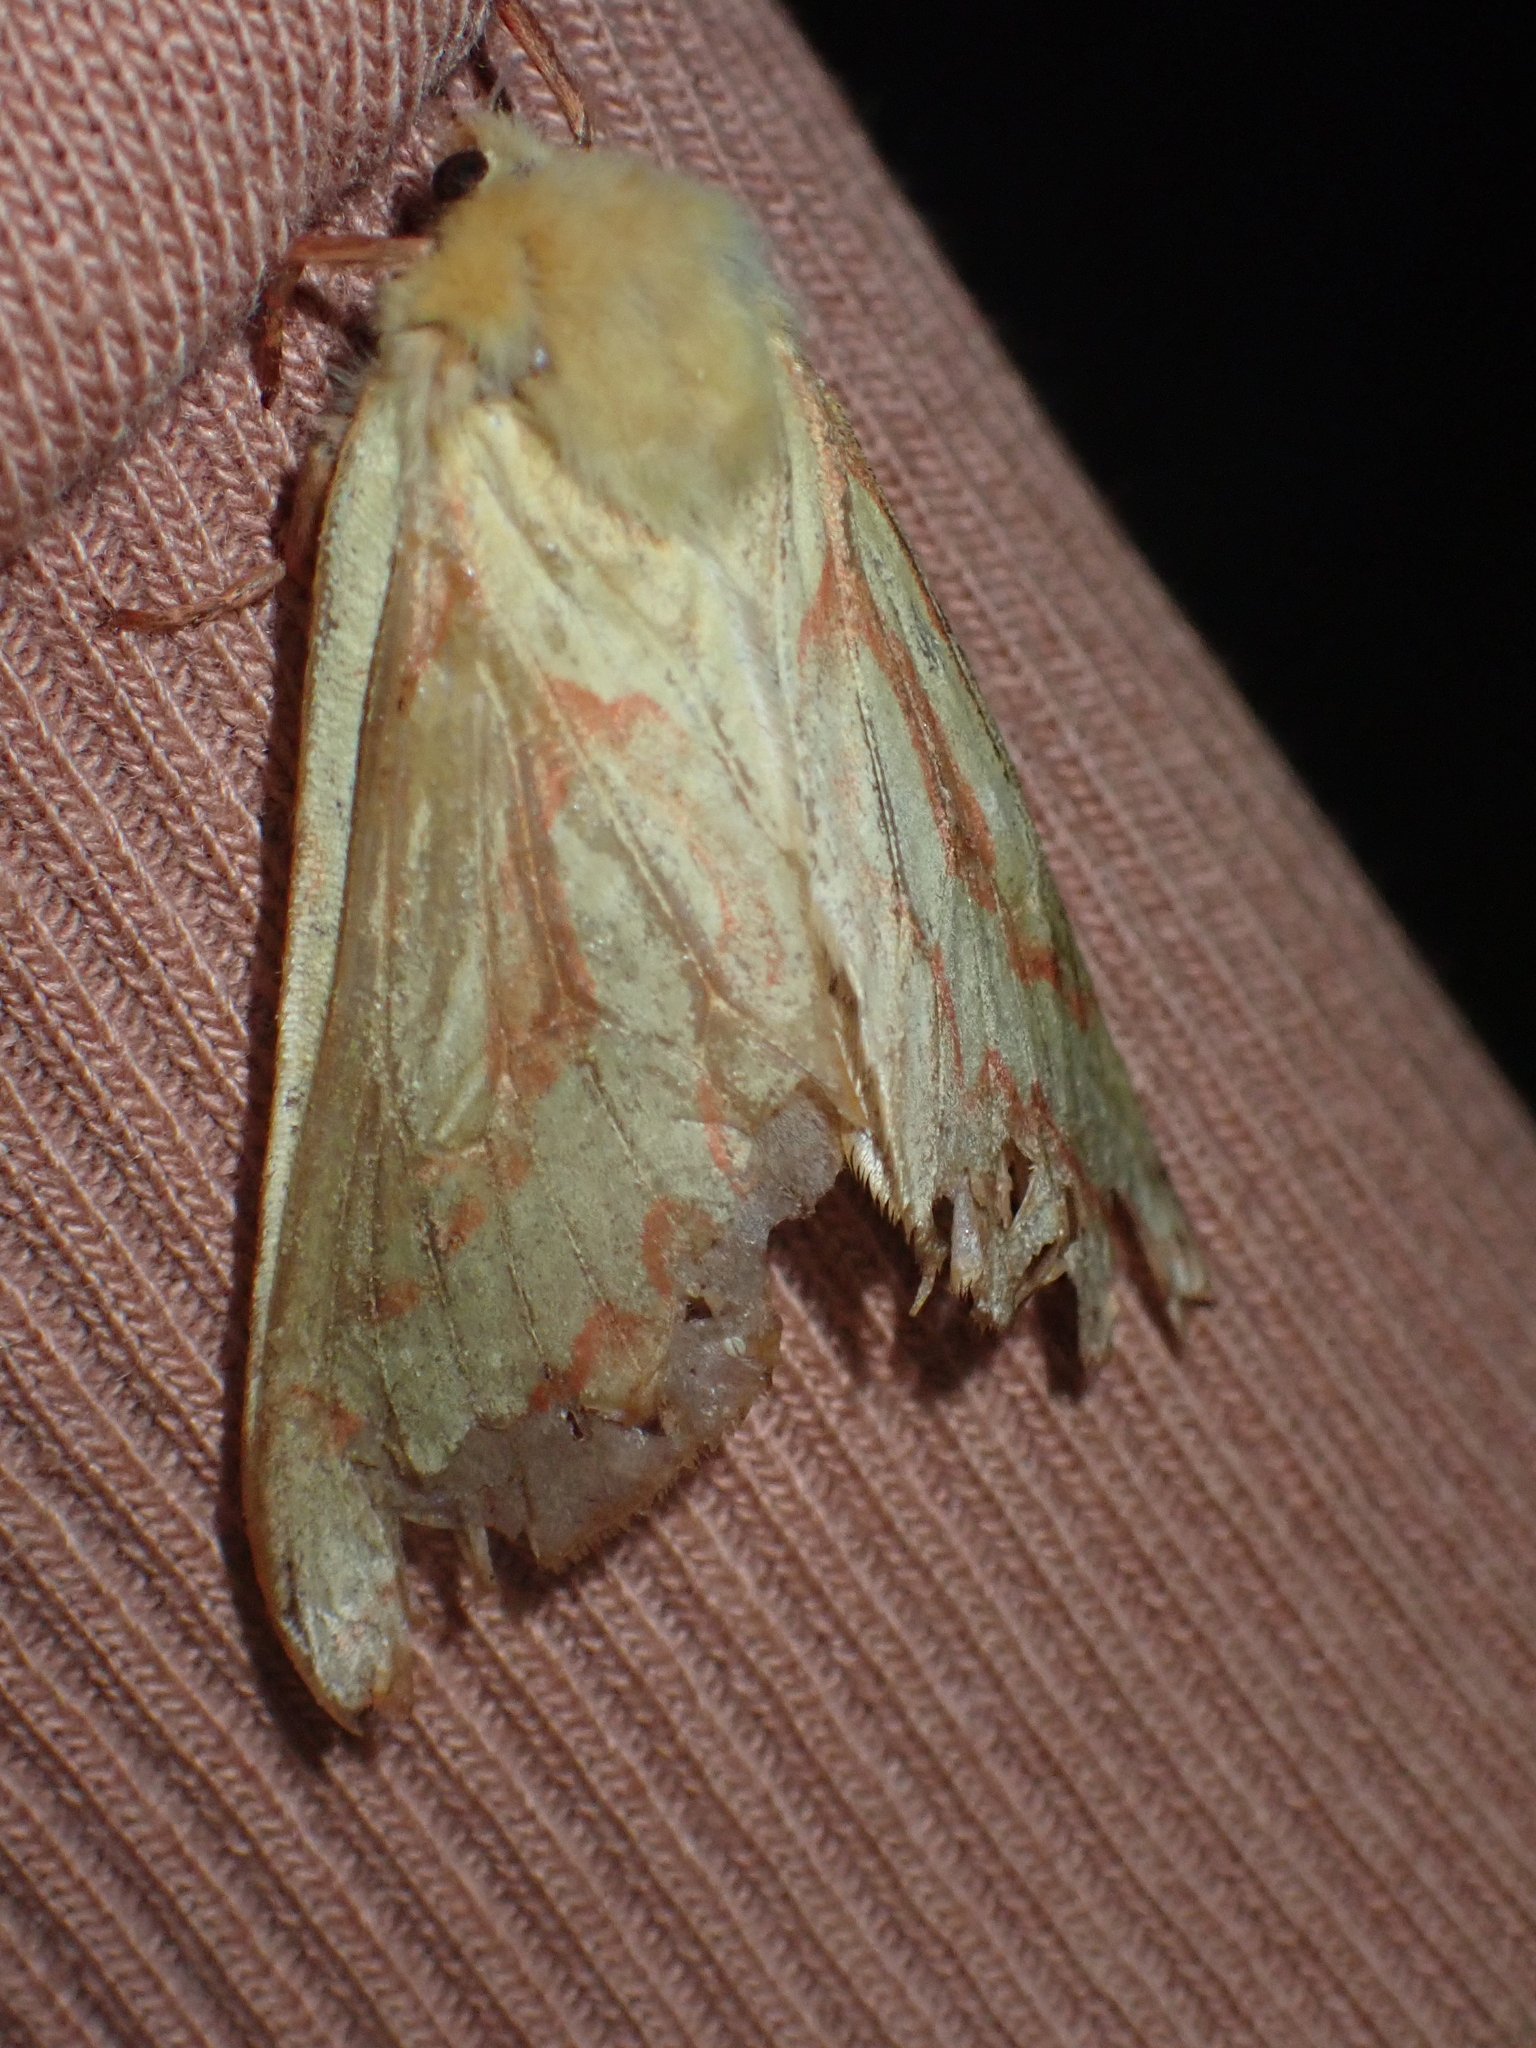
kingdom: Animalia
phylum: Arthropoda
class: Insecta
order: Lepidoptera
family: Hepialidae
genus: Hepialus
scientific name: Hepialus humuli
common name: Ghost moth
